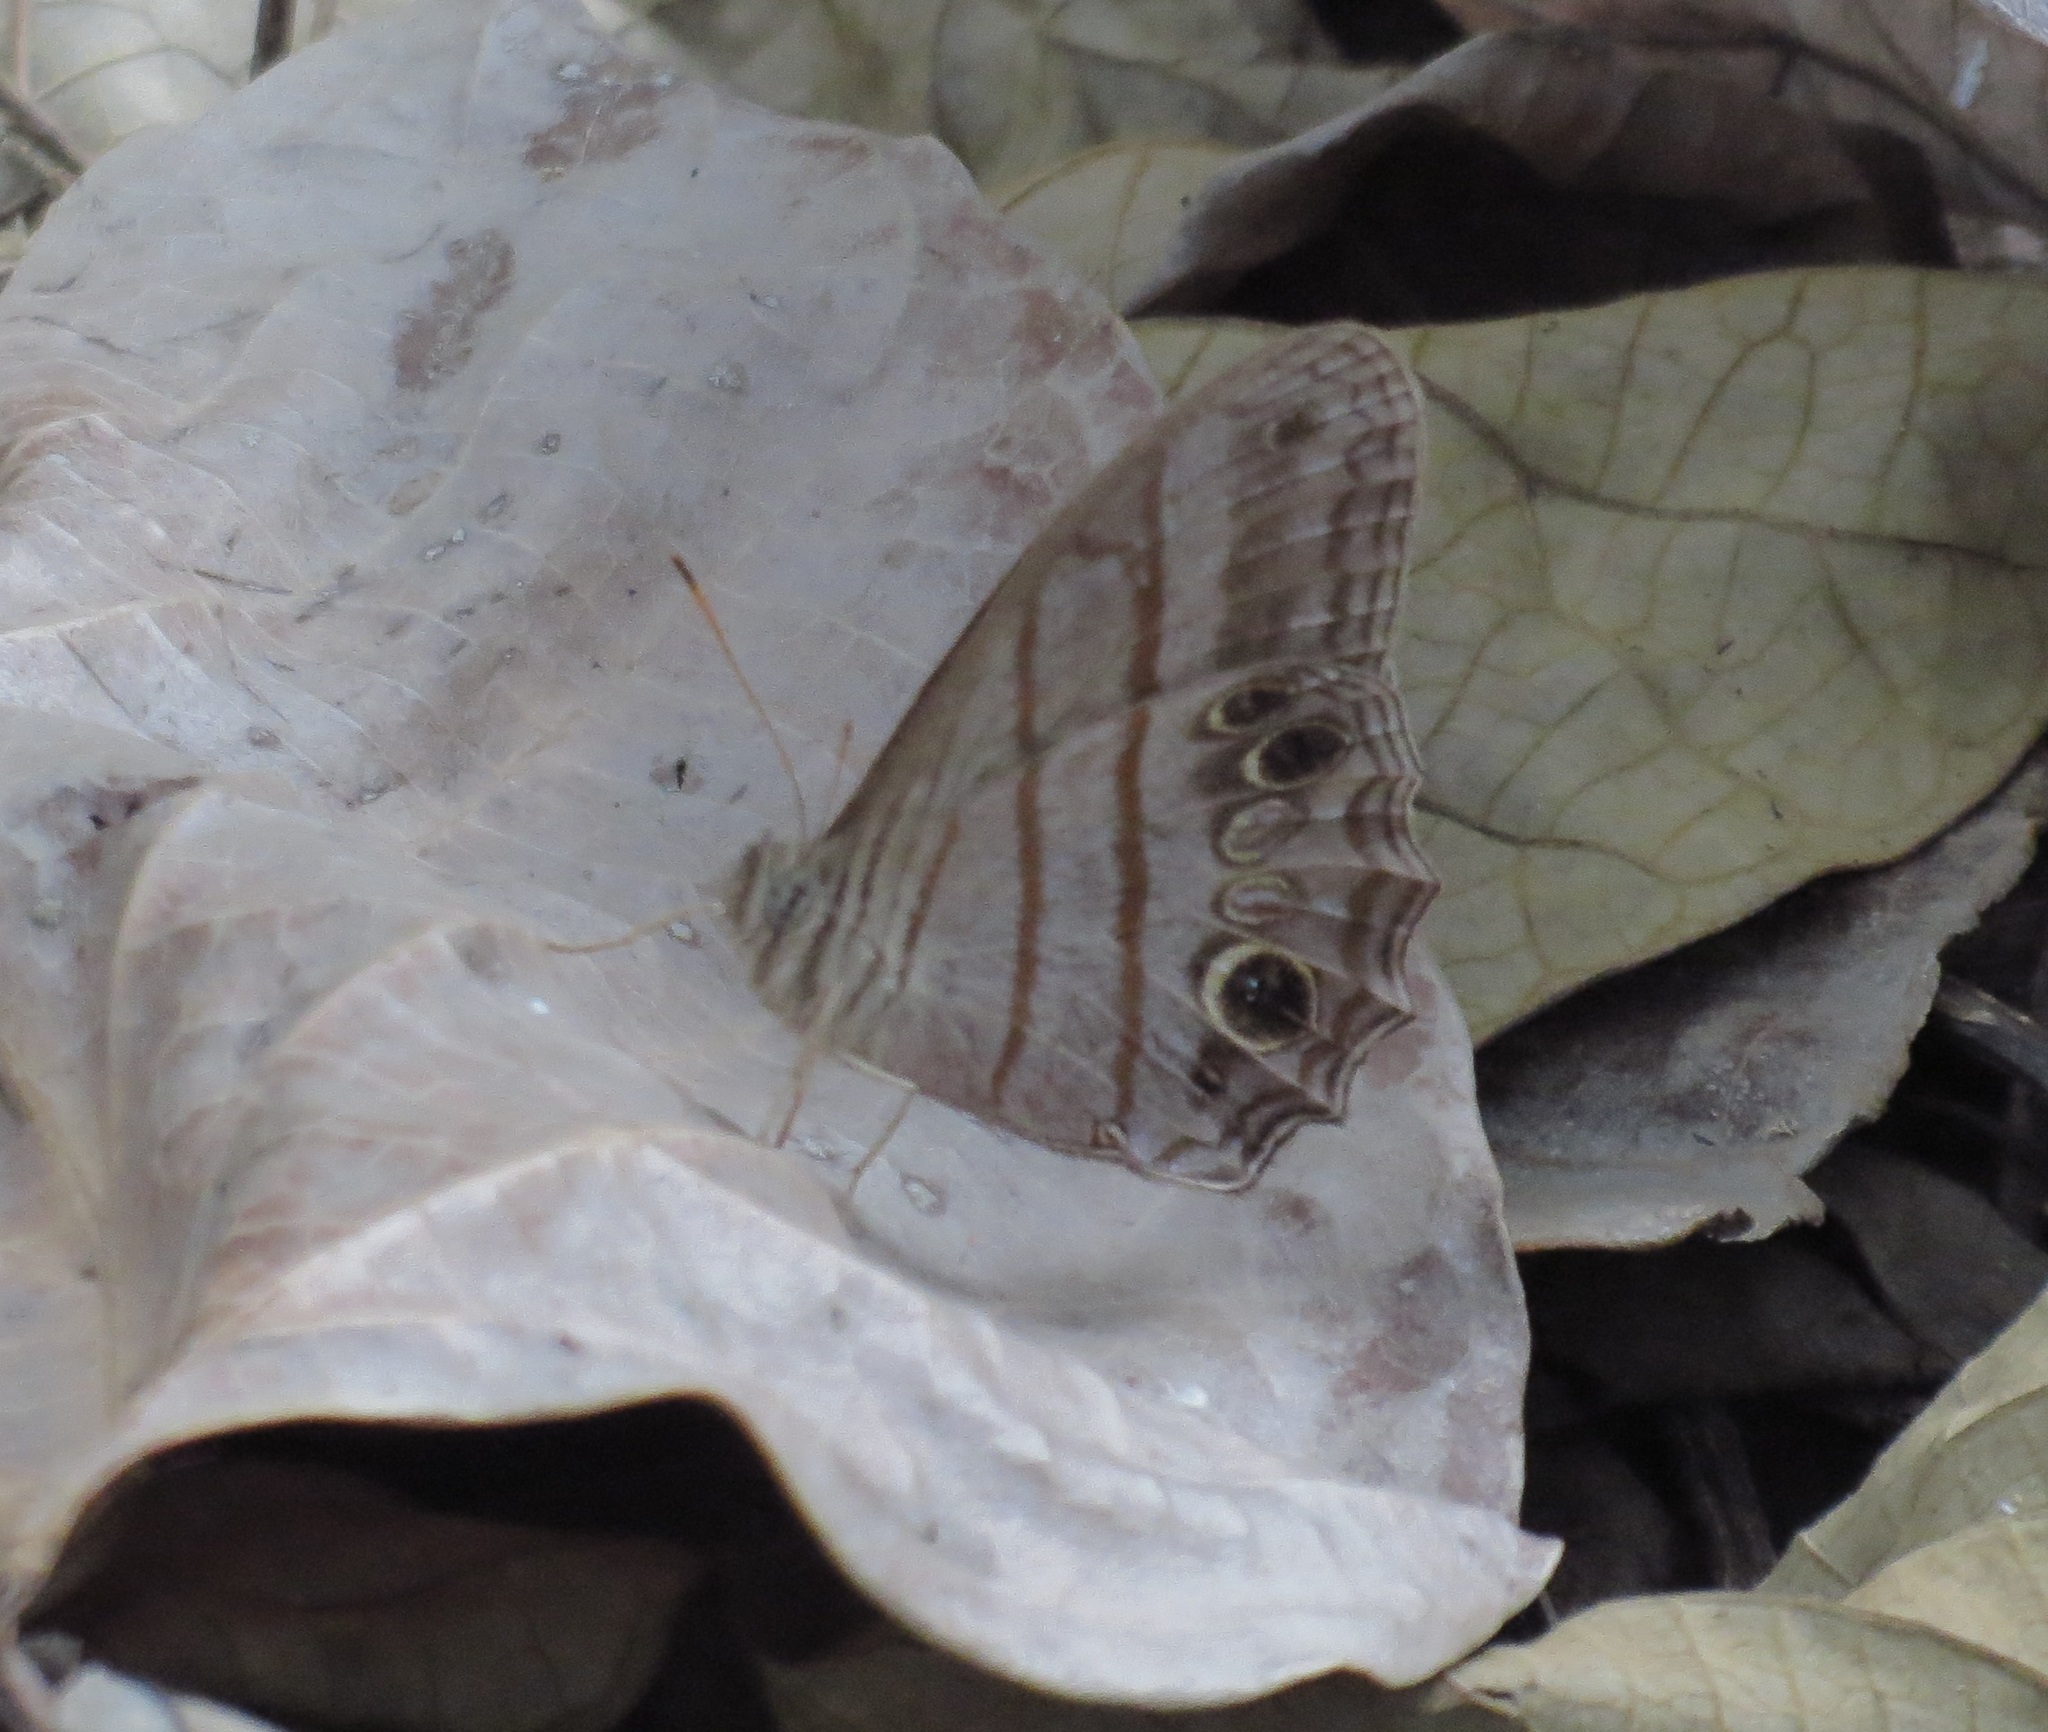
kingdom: Animalia
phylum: Arthropoda
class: Insecta
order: Lepidoptera
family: Nymphalidae
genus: Magneuptychia
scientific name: Magneuptychia libye
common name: Blue-gray satyr
